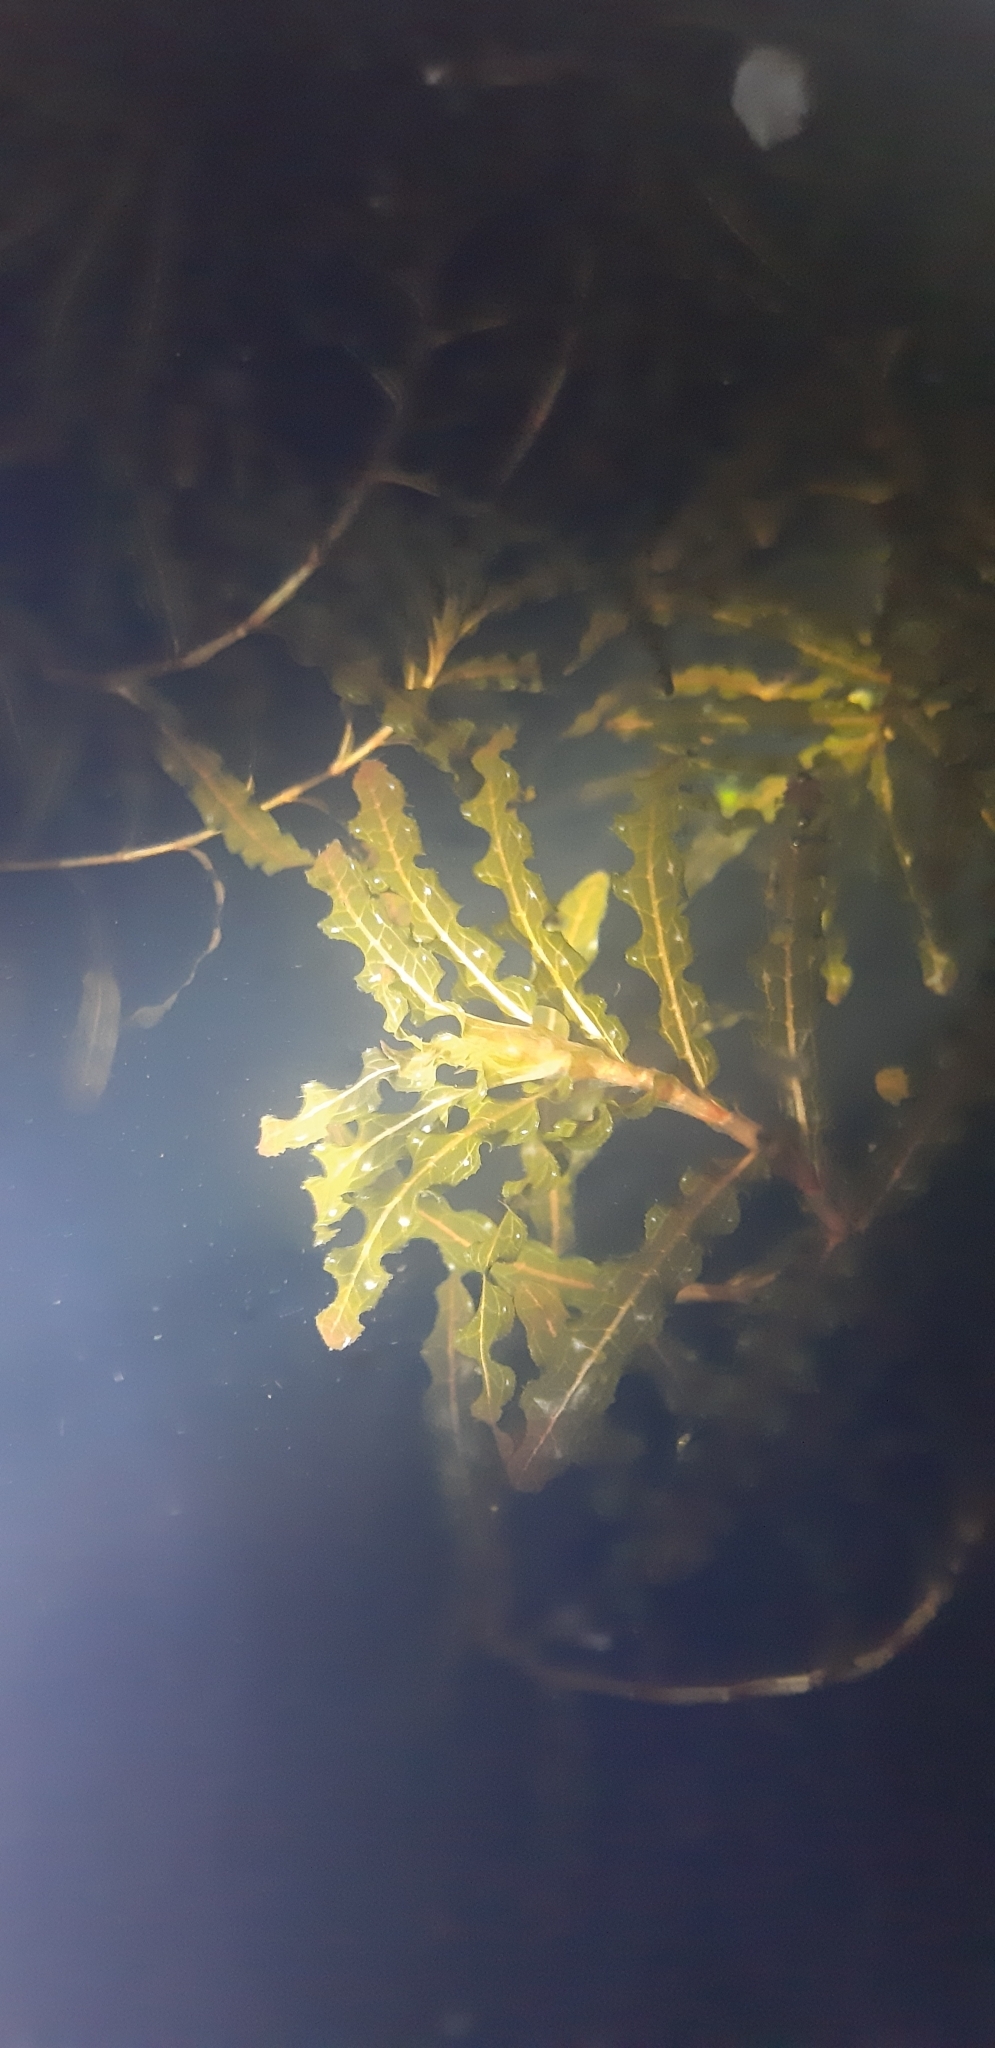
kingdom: Plantae
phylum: Tracheophyta
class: Liliopsida
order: Alismatales
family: Potamogetonaceae
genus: Potamogeton
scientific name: Potamogeton crispus
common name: Curled pondweed
